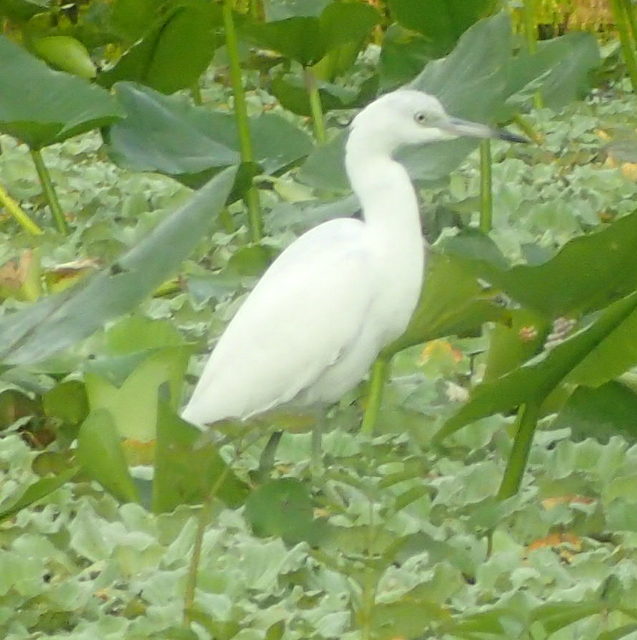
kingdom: Animalia
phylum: Chordata
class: Aves
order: Pelecaniformes
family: Ardeidae
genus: Egretta
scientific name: Egretta caerulea
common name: Little blue heron
